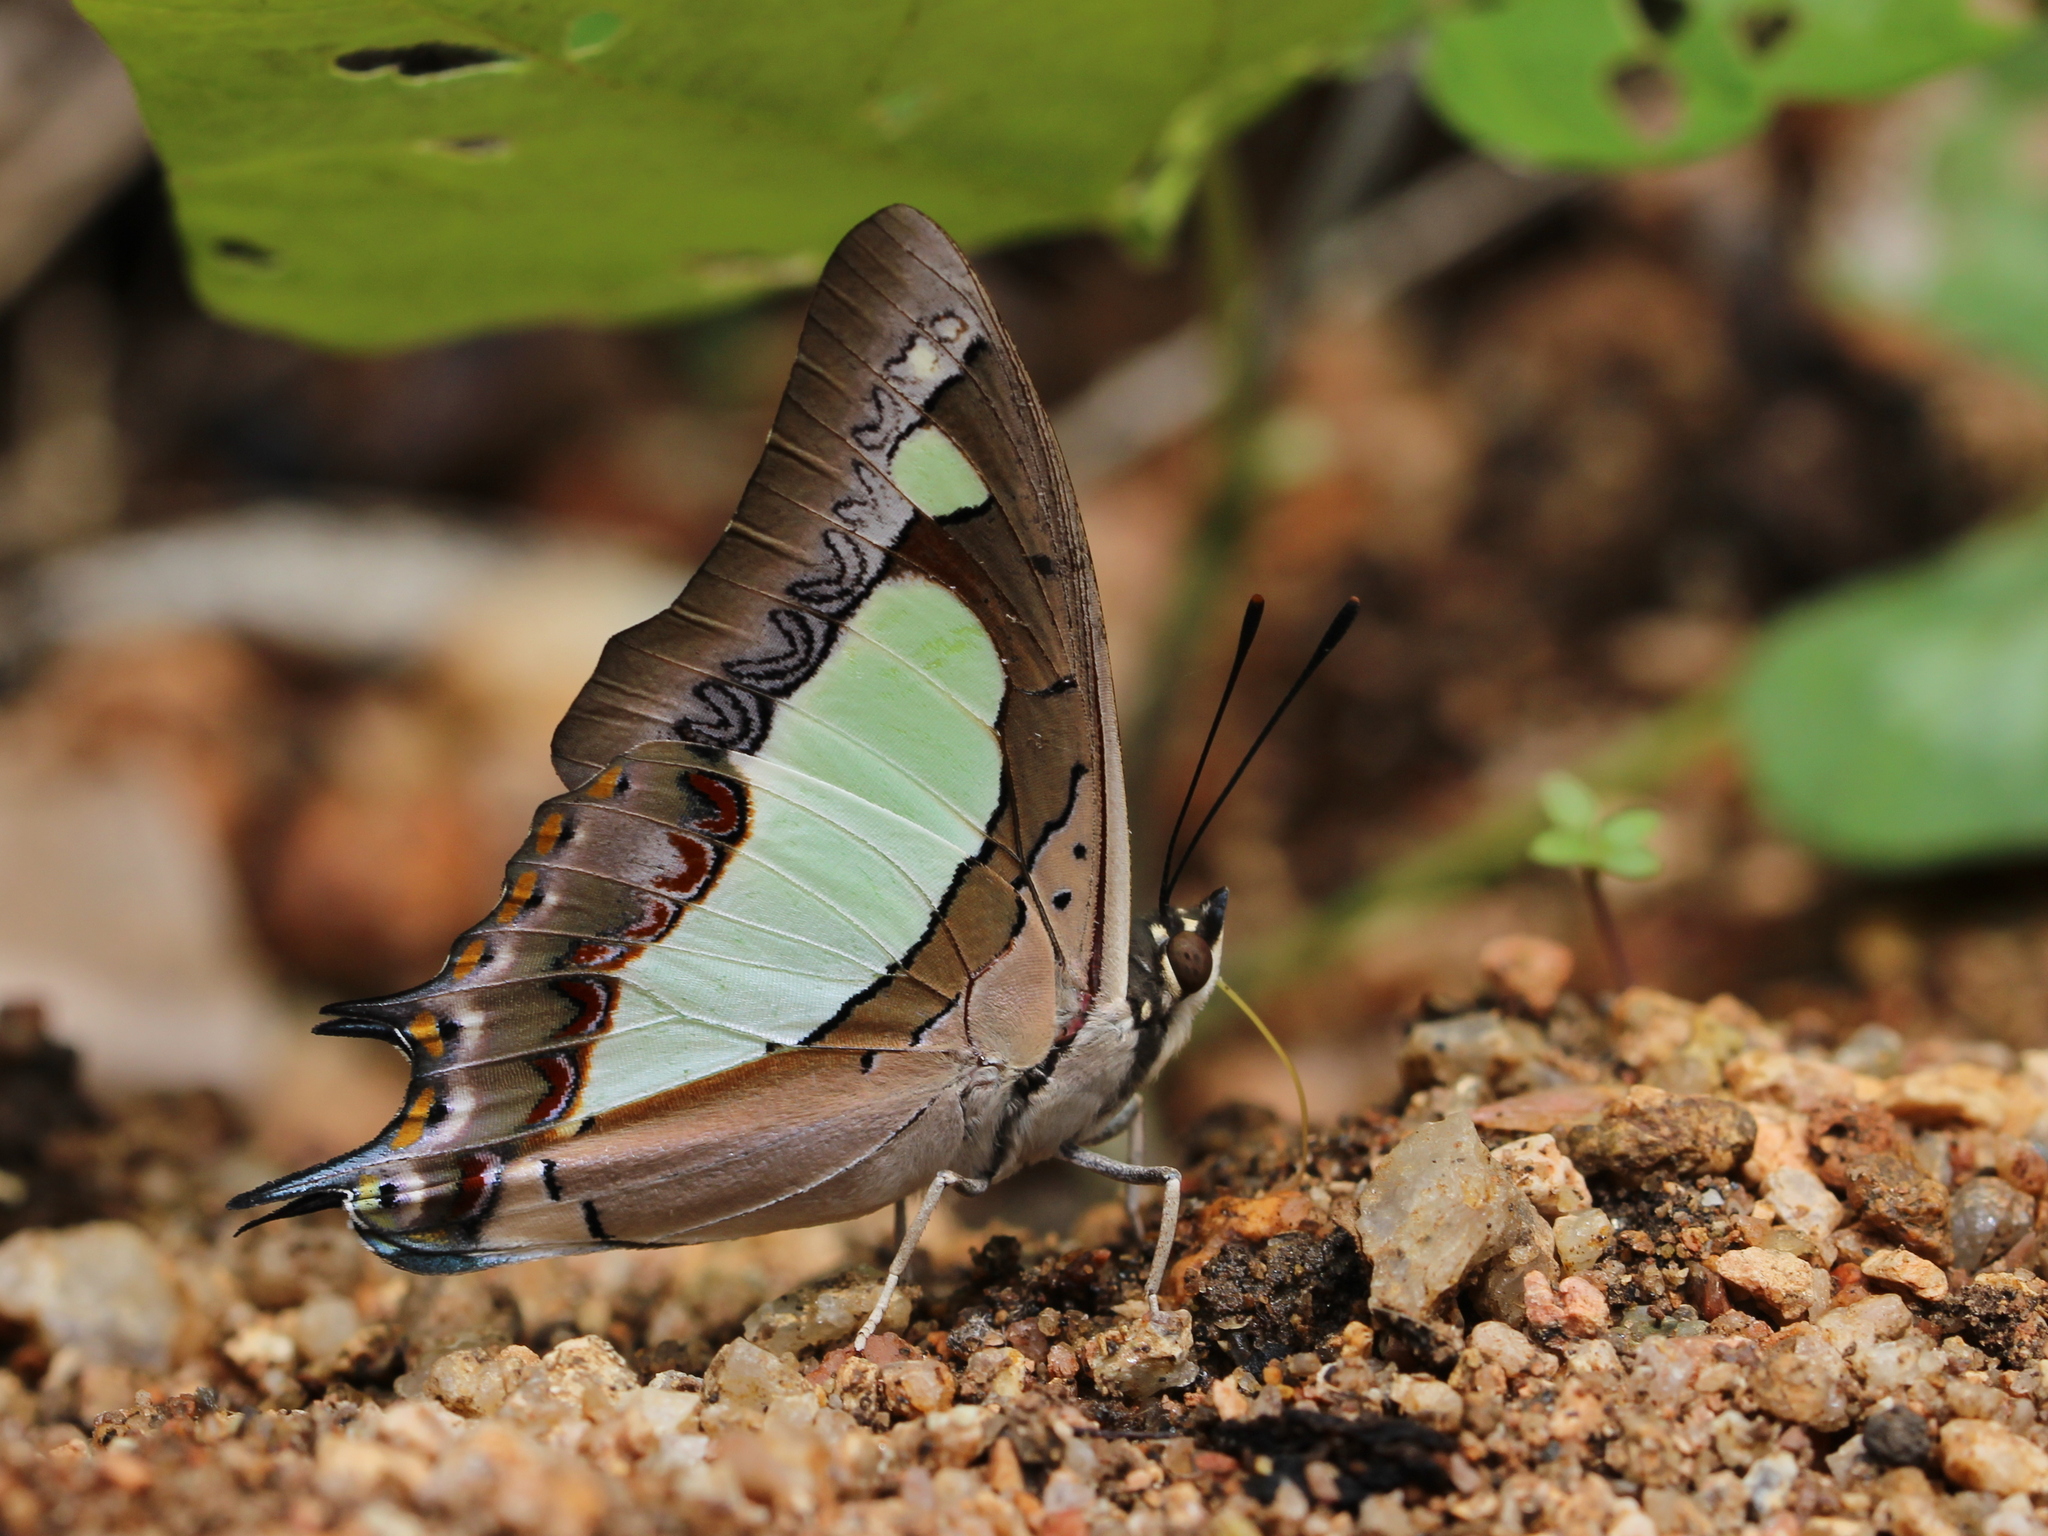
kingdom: Animalia
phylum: Arthropoda
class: Insecta
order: Lepidoptera
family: Nymphalidae
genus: Polyura
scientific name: Polyura agrarius
